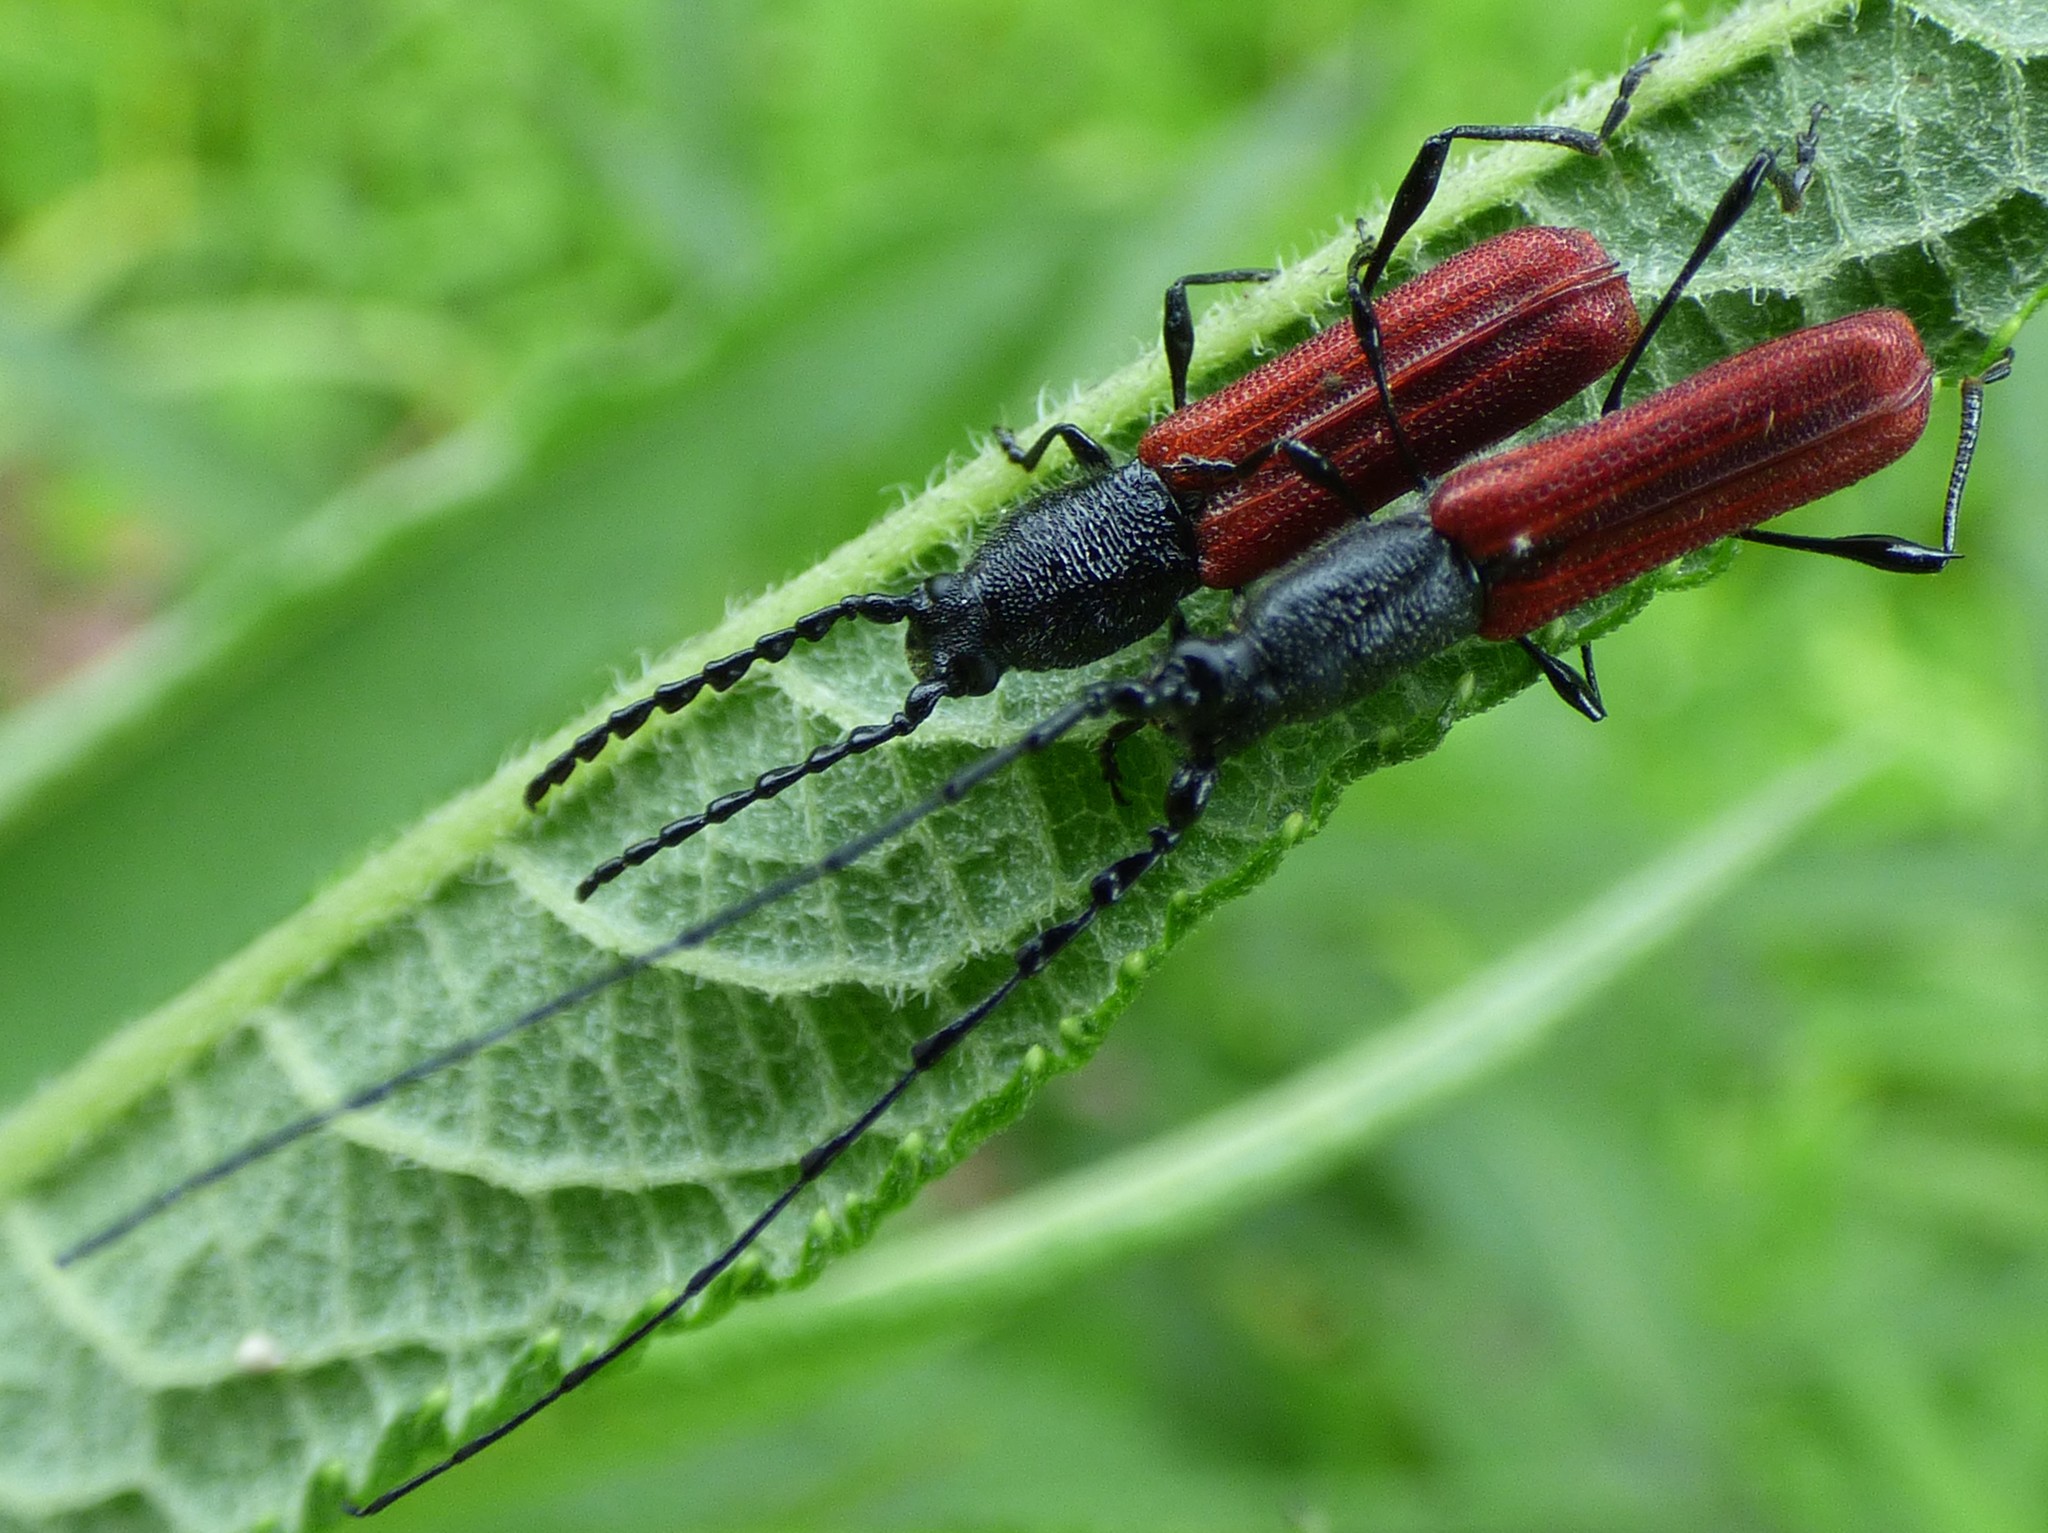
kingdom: Animalia
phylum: Arthropoda
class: Insecta
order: Coleoptera
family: Cerambycidae
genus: Ancylocera
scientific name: Ancylocera bicolor
